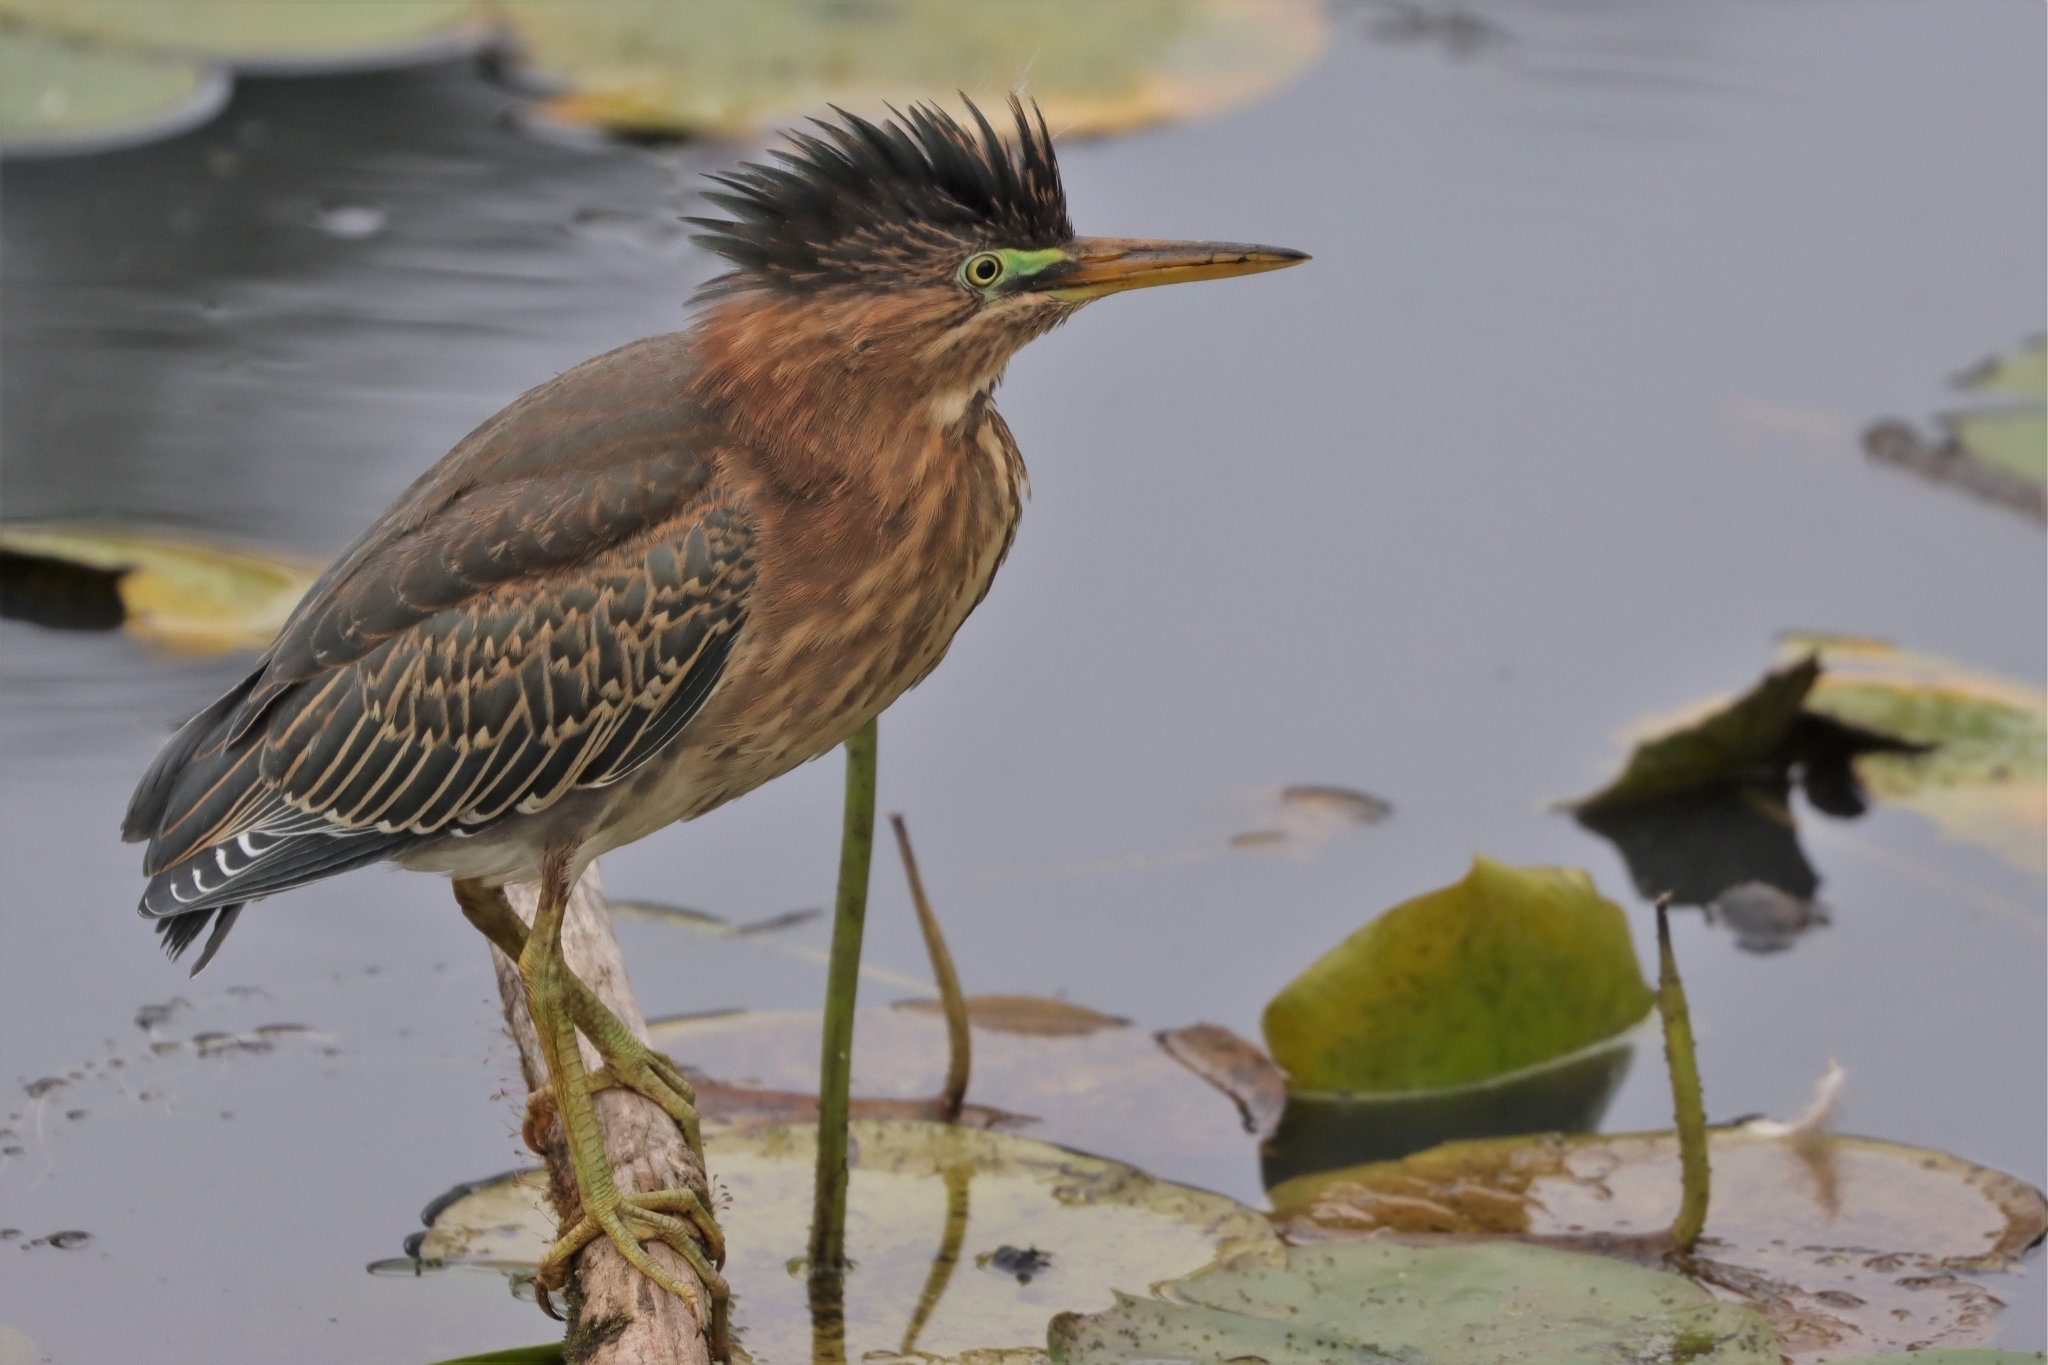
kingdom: Animalia
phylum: Chordata
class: Aves
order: Pelecaniformes
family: Ardeidae
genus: Butorides
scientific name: Butorides virescens
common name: Green heron
